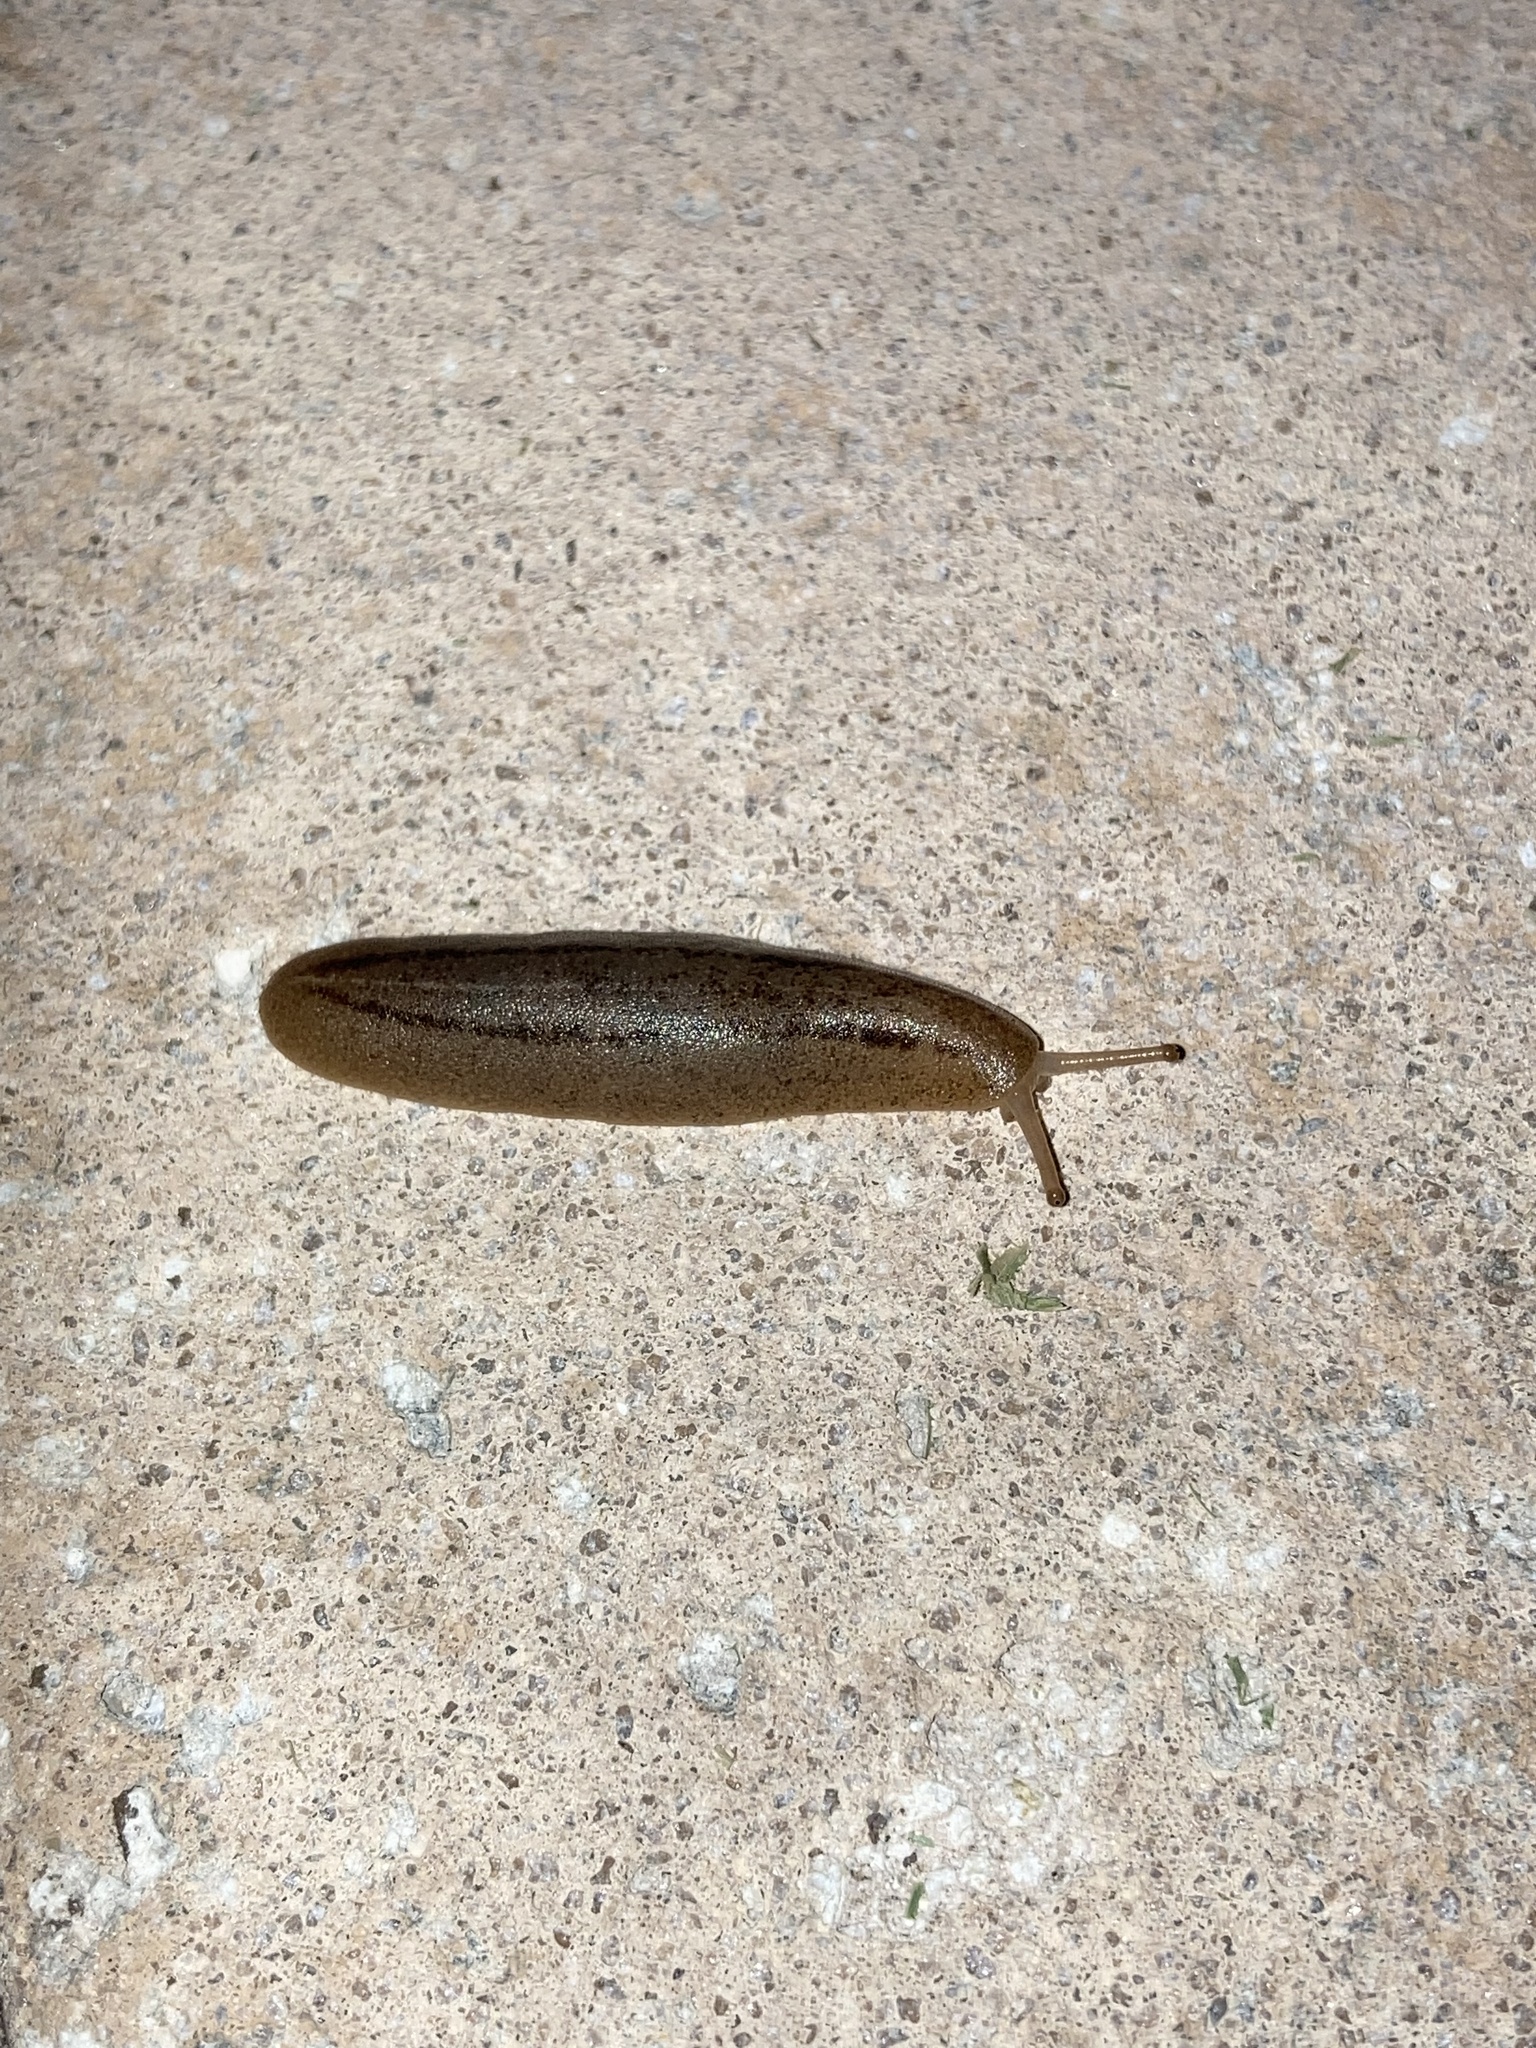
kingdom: Animalia
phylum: Mollusca
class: Gastropoda
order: Systellommatophora
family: Veronicellidae
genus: Leidyula
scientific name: Leidyula floridana
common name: Florida leatherleaf
